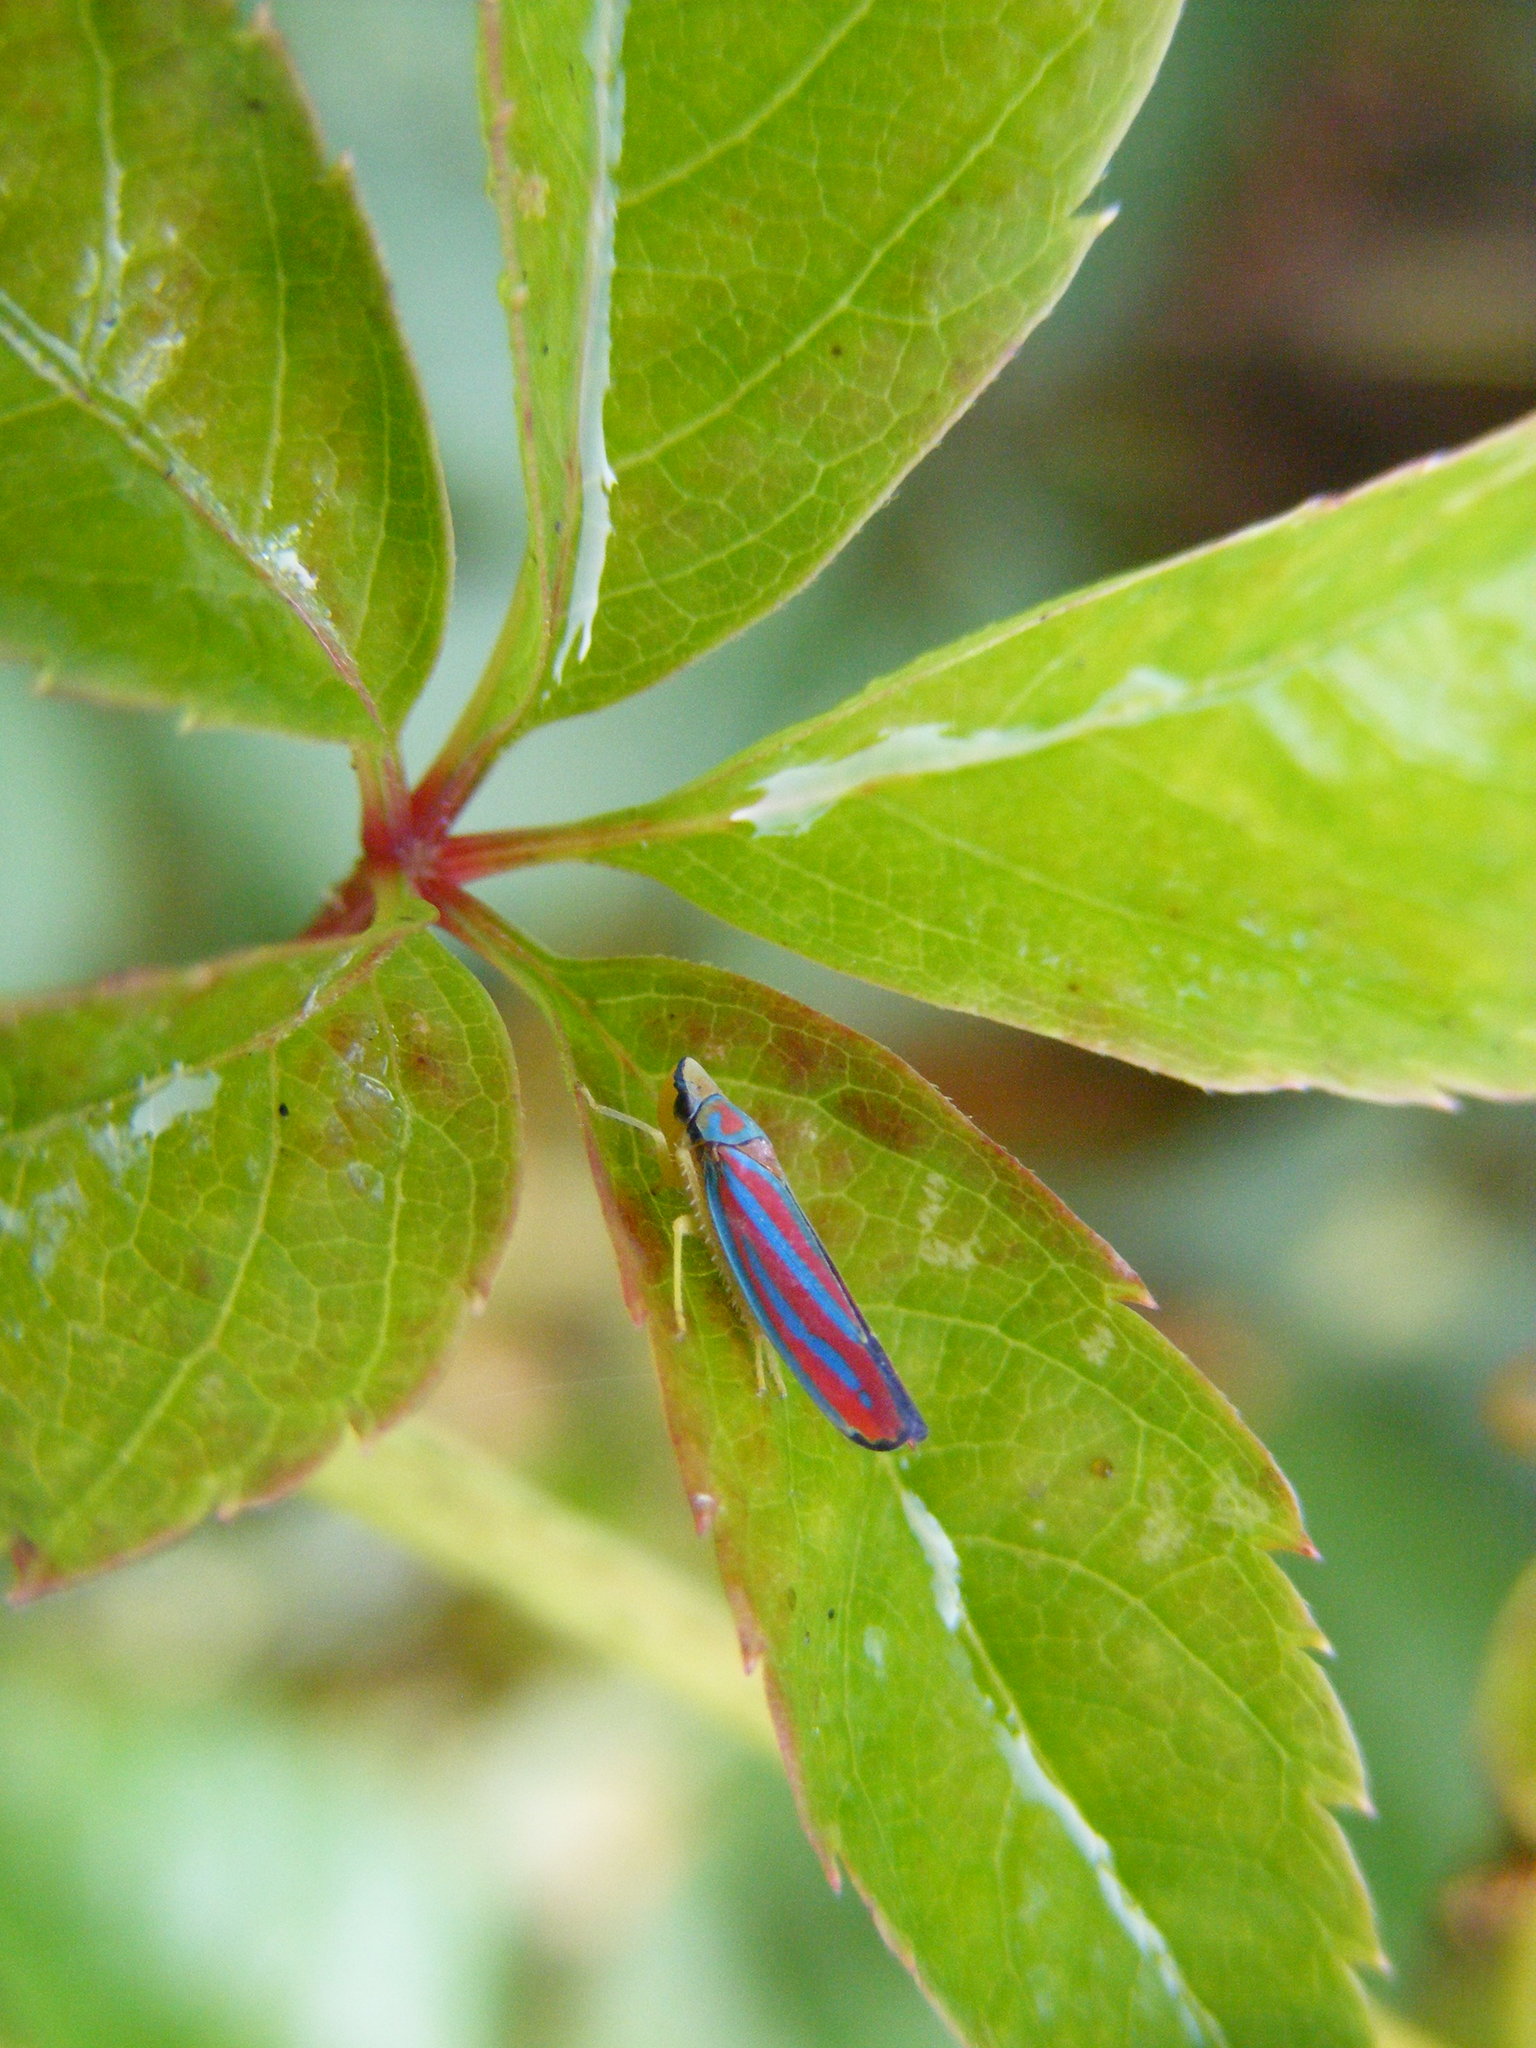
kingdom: Animalia
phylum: Arthropoda
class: Insecta
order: Hemiptera
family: Cicadellidae
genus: Graphocephala
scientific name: Graphocephala coccinea
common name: Candy-striped leafhopper
